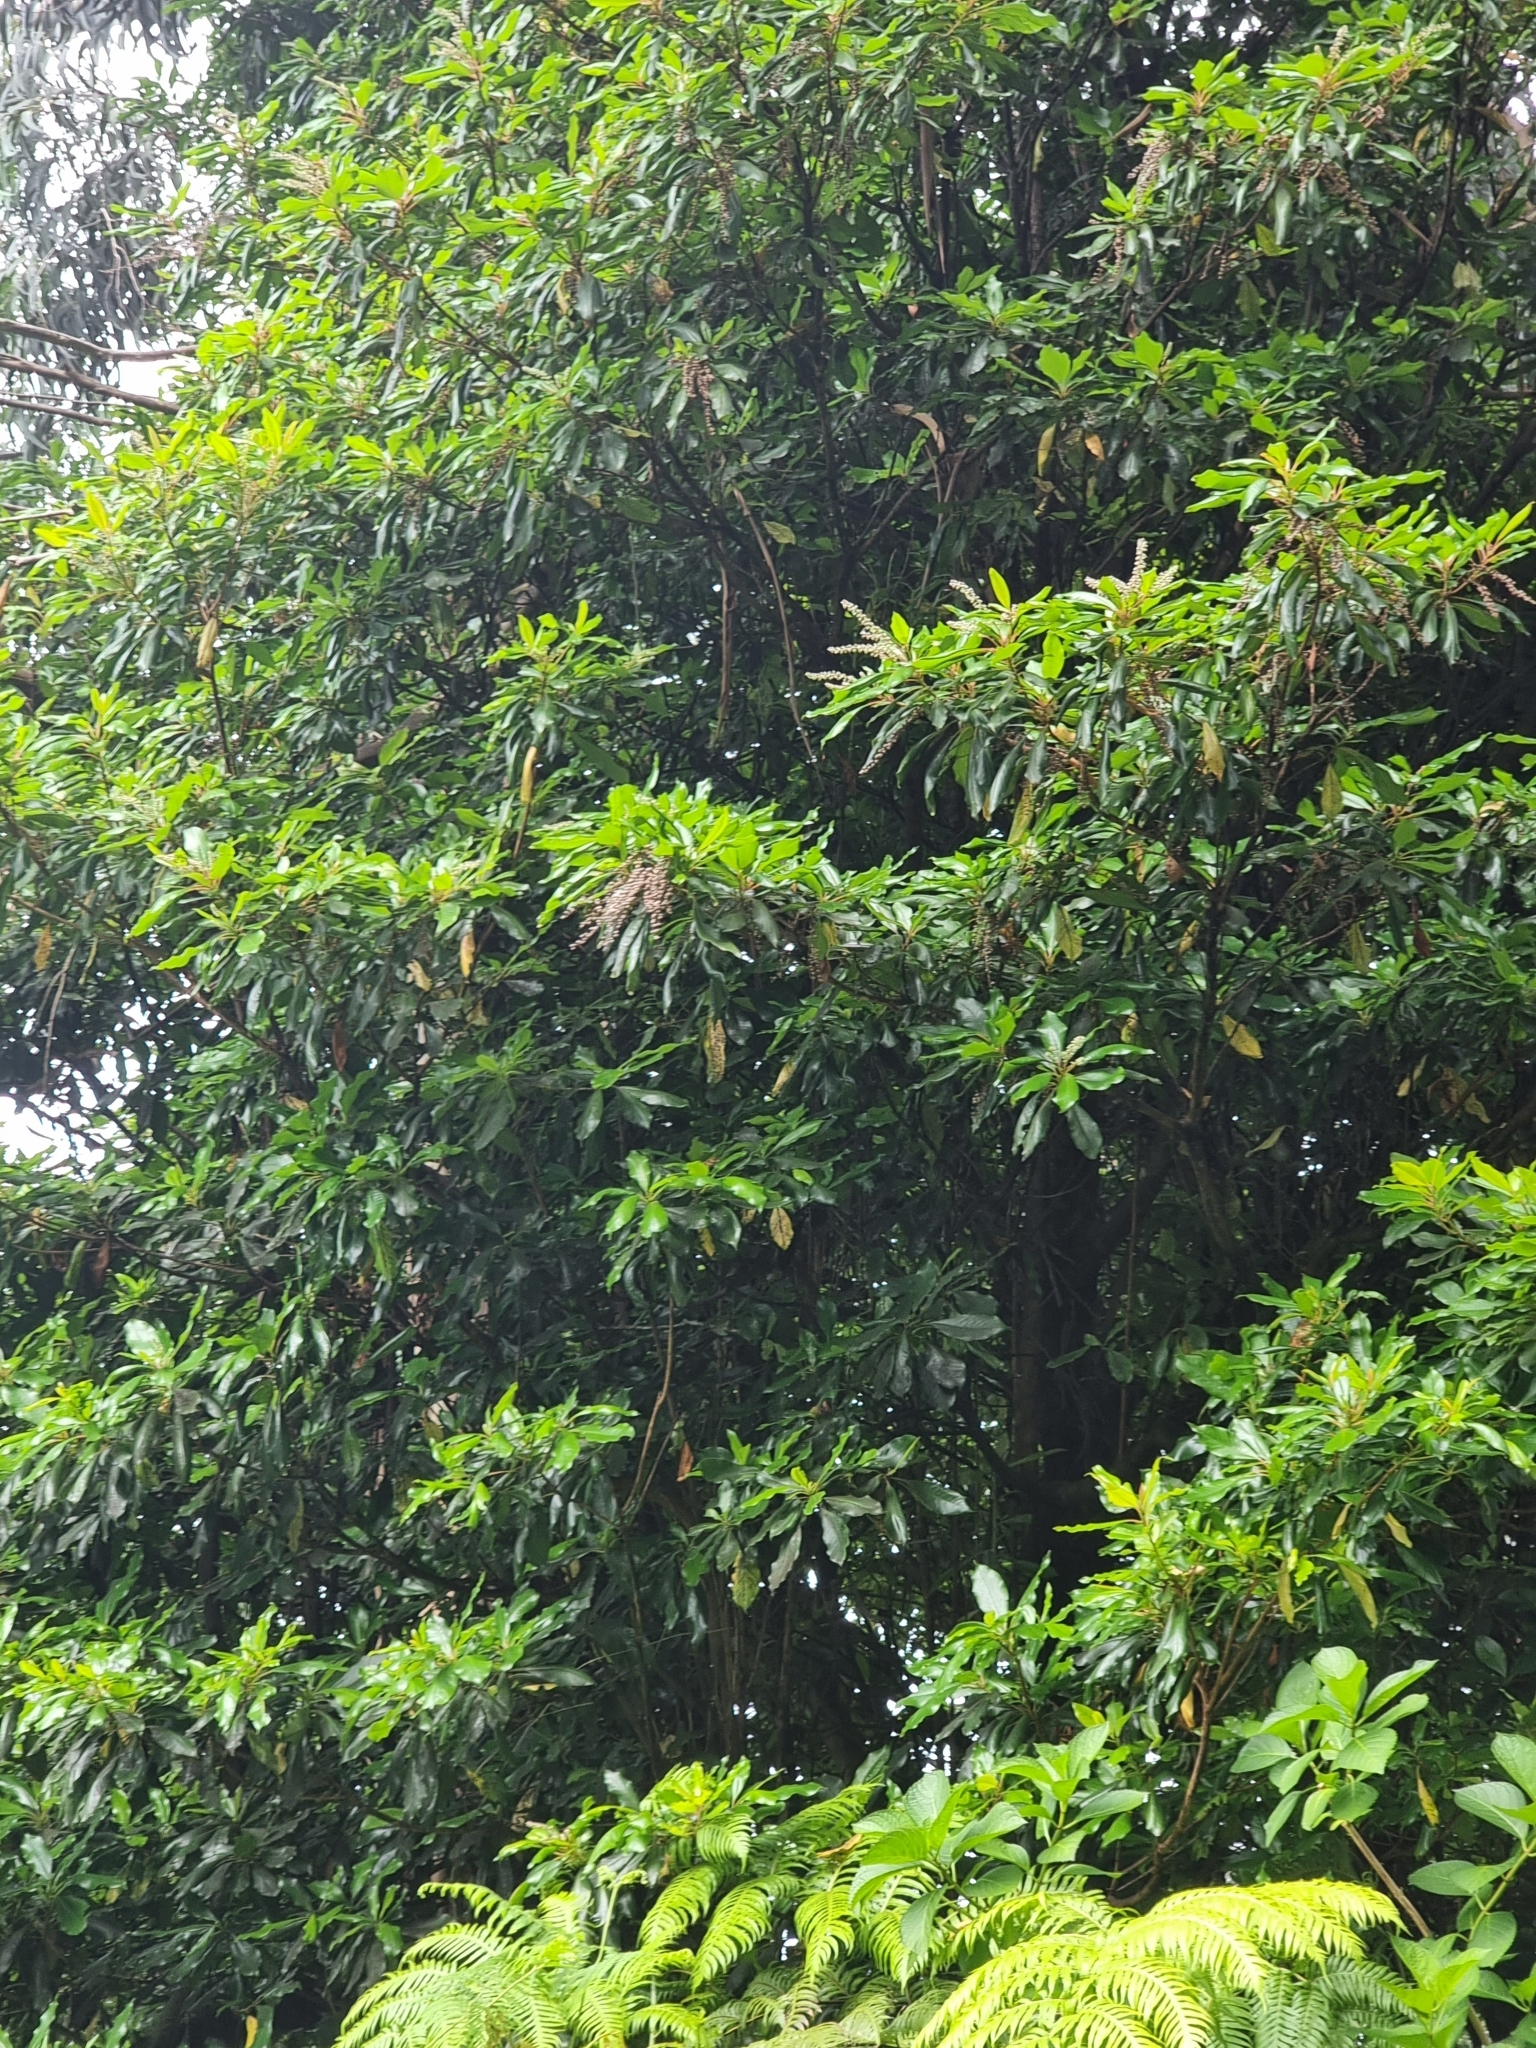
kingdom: Plantae
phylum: Tracheophyta
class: Magnoliopsida
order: Ericales
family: Clethraceae
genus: Clethra
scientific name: Clethra arborea
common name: Lily-of-the-valley-tree
